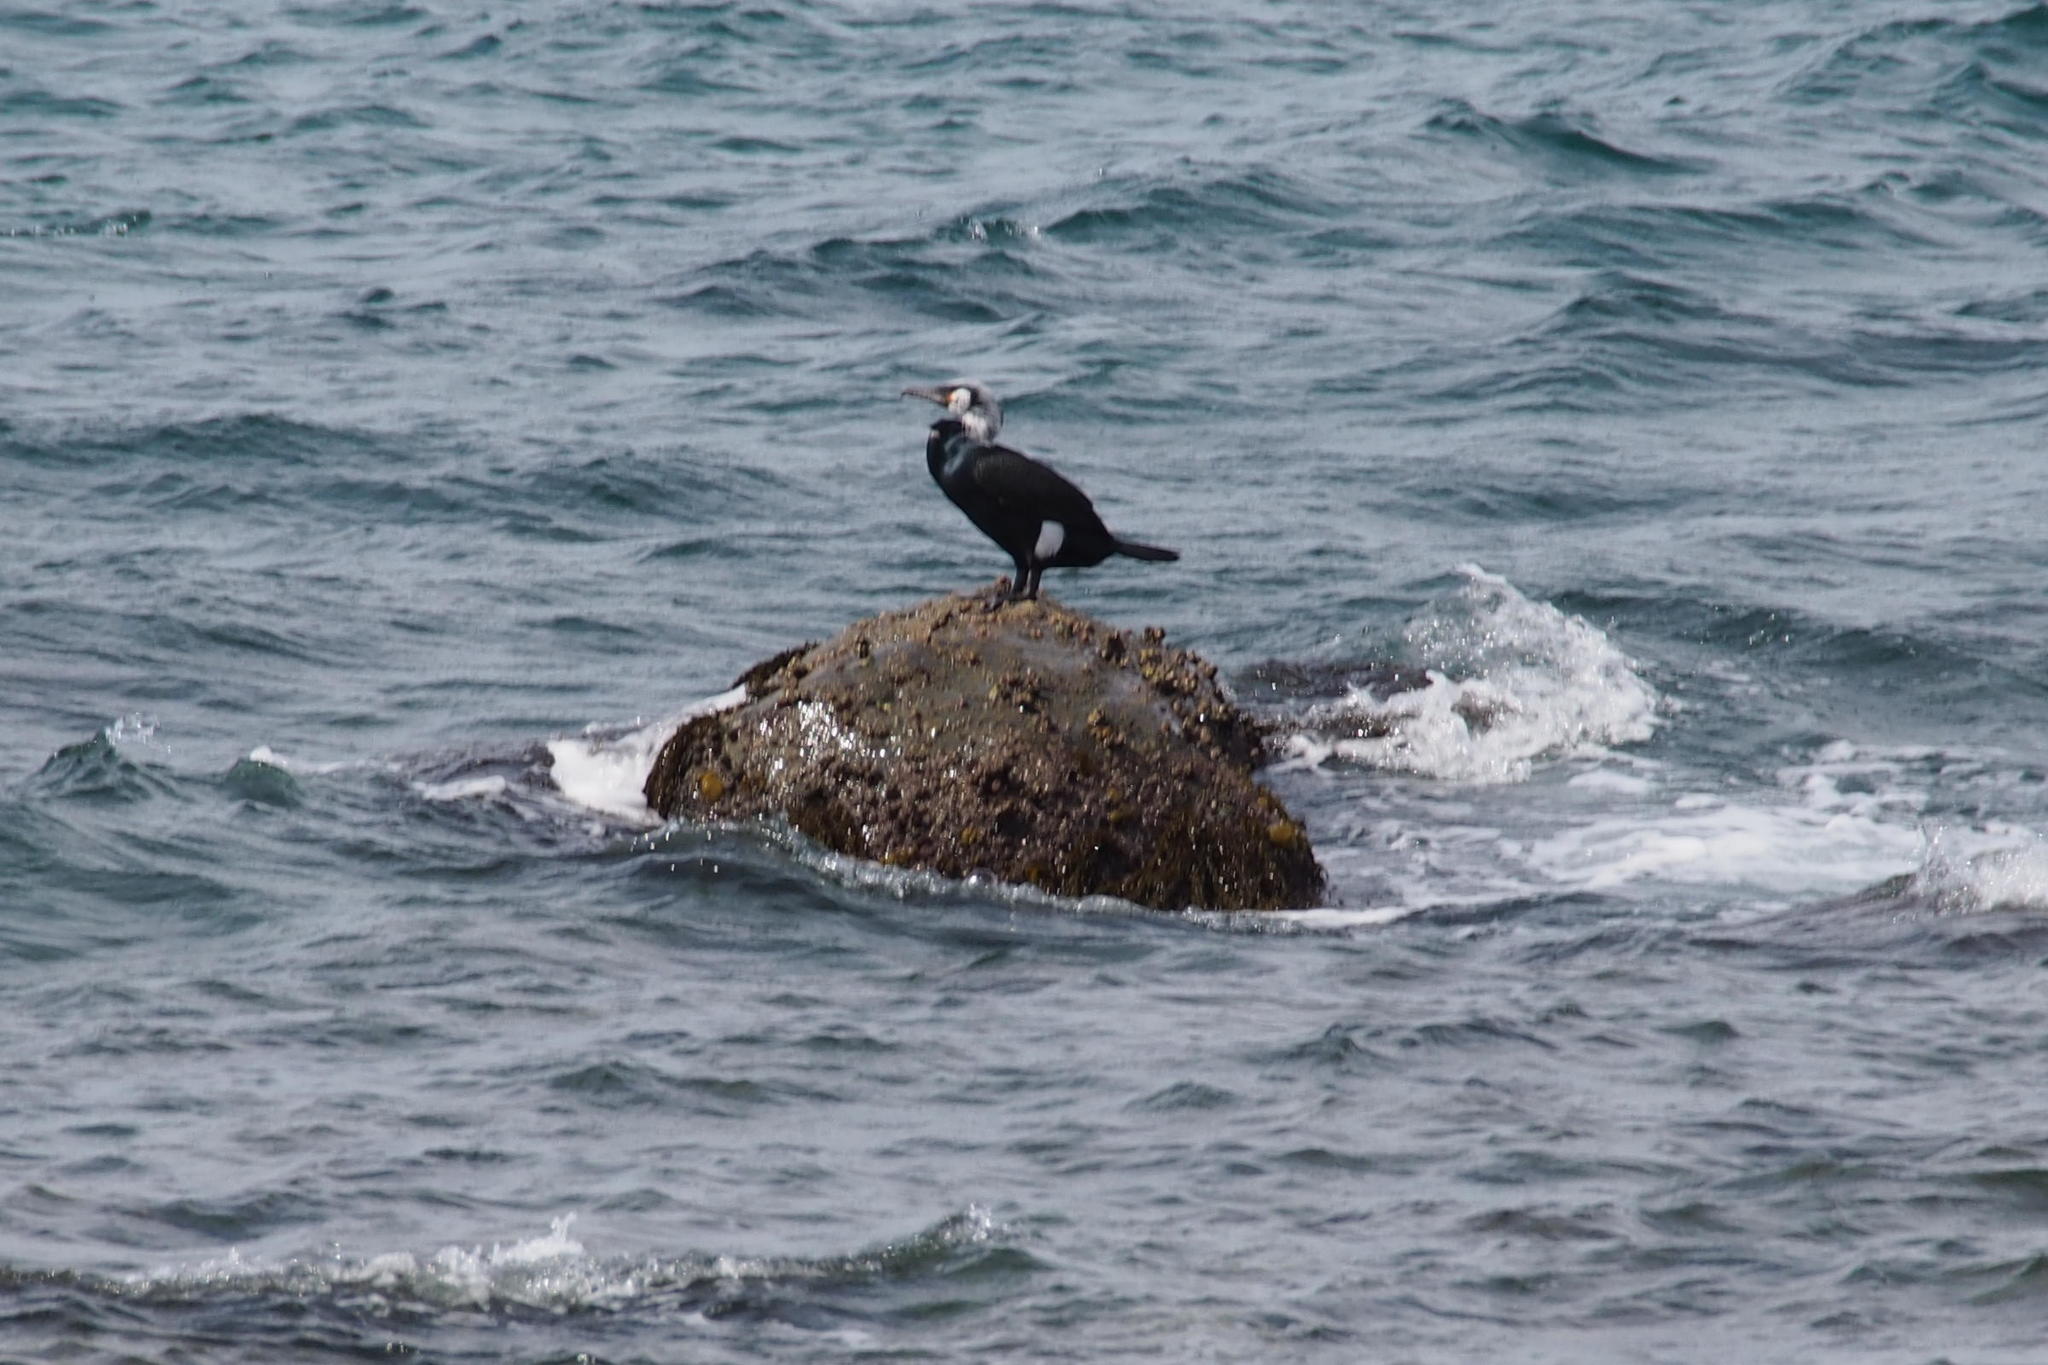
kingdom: Animalia
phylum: Chordata
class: Aves
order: Suliformes
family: Phalacrocoracidae
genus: Phalacrocorax
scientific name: Phalacrocorax capillatus
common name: Japanese cormorant
